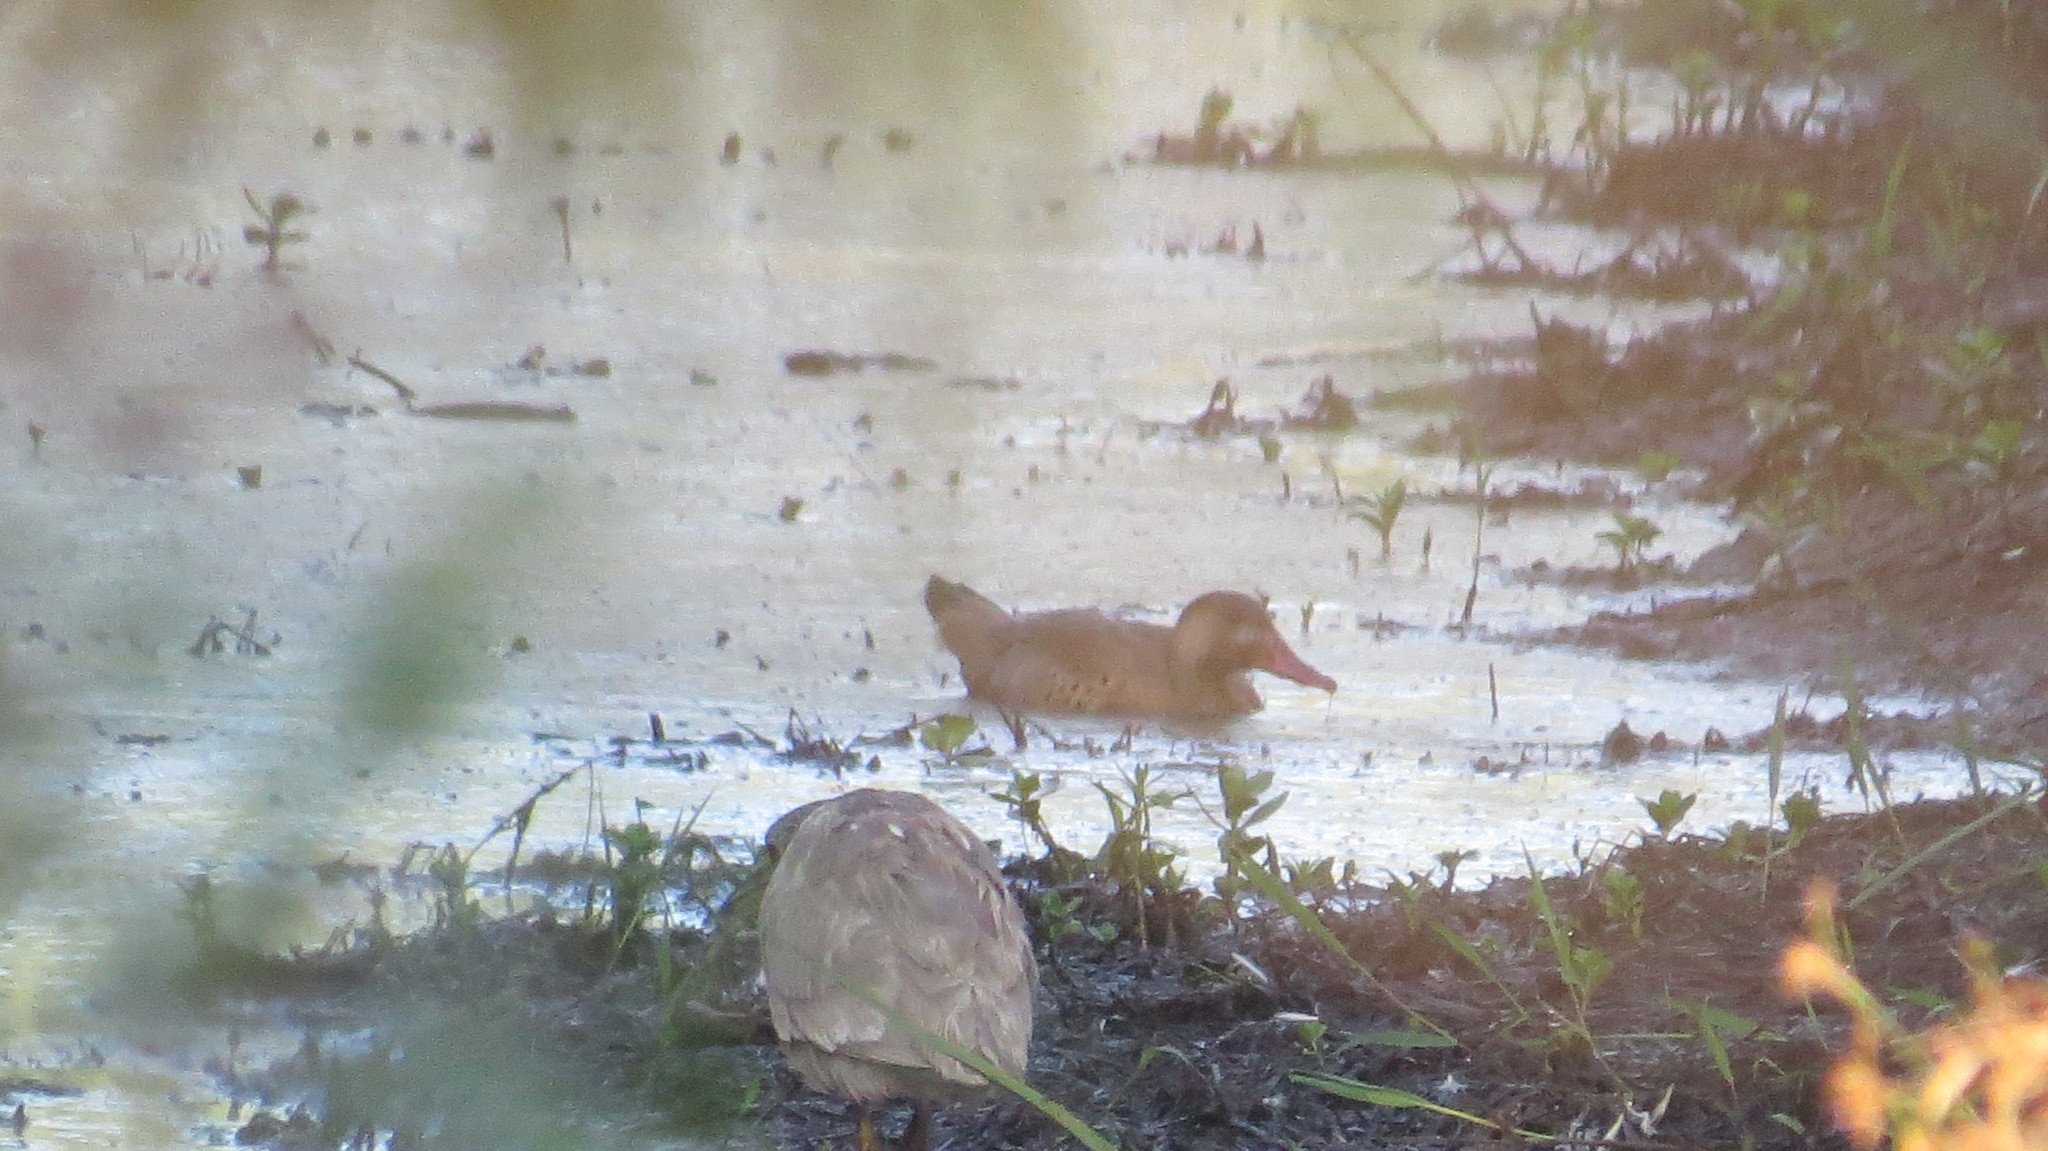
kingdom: Animalia
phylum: Chordata
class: Aves
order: Anseriformes
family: Anatidae
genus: Amazonetta
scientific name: Amazonetta brasiliensis
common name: Brazilian teal
